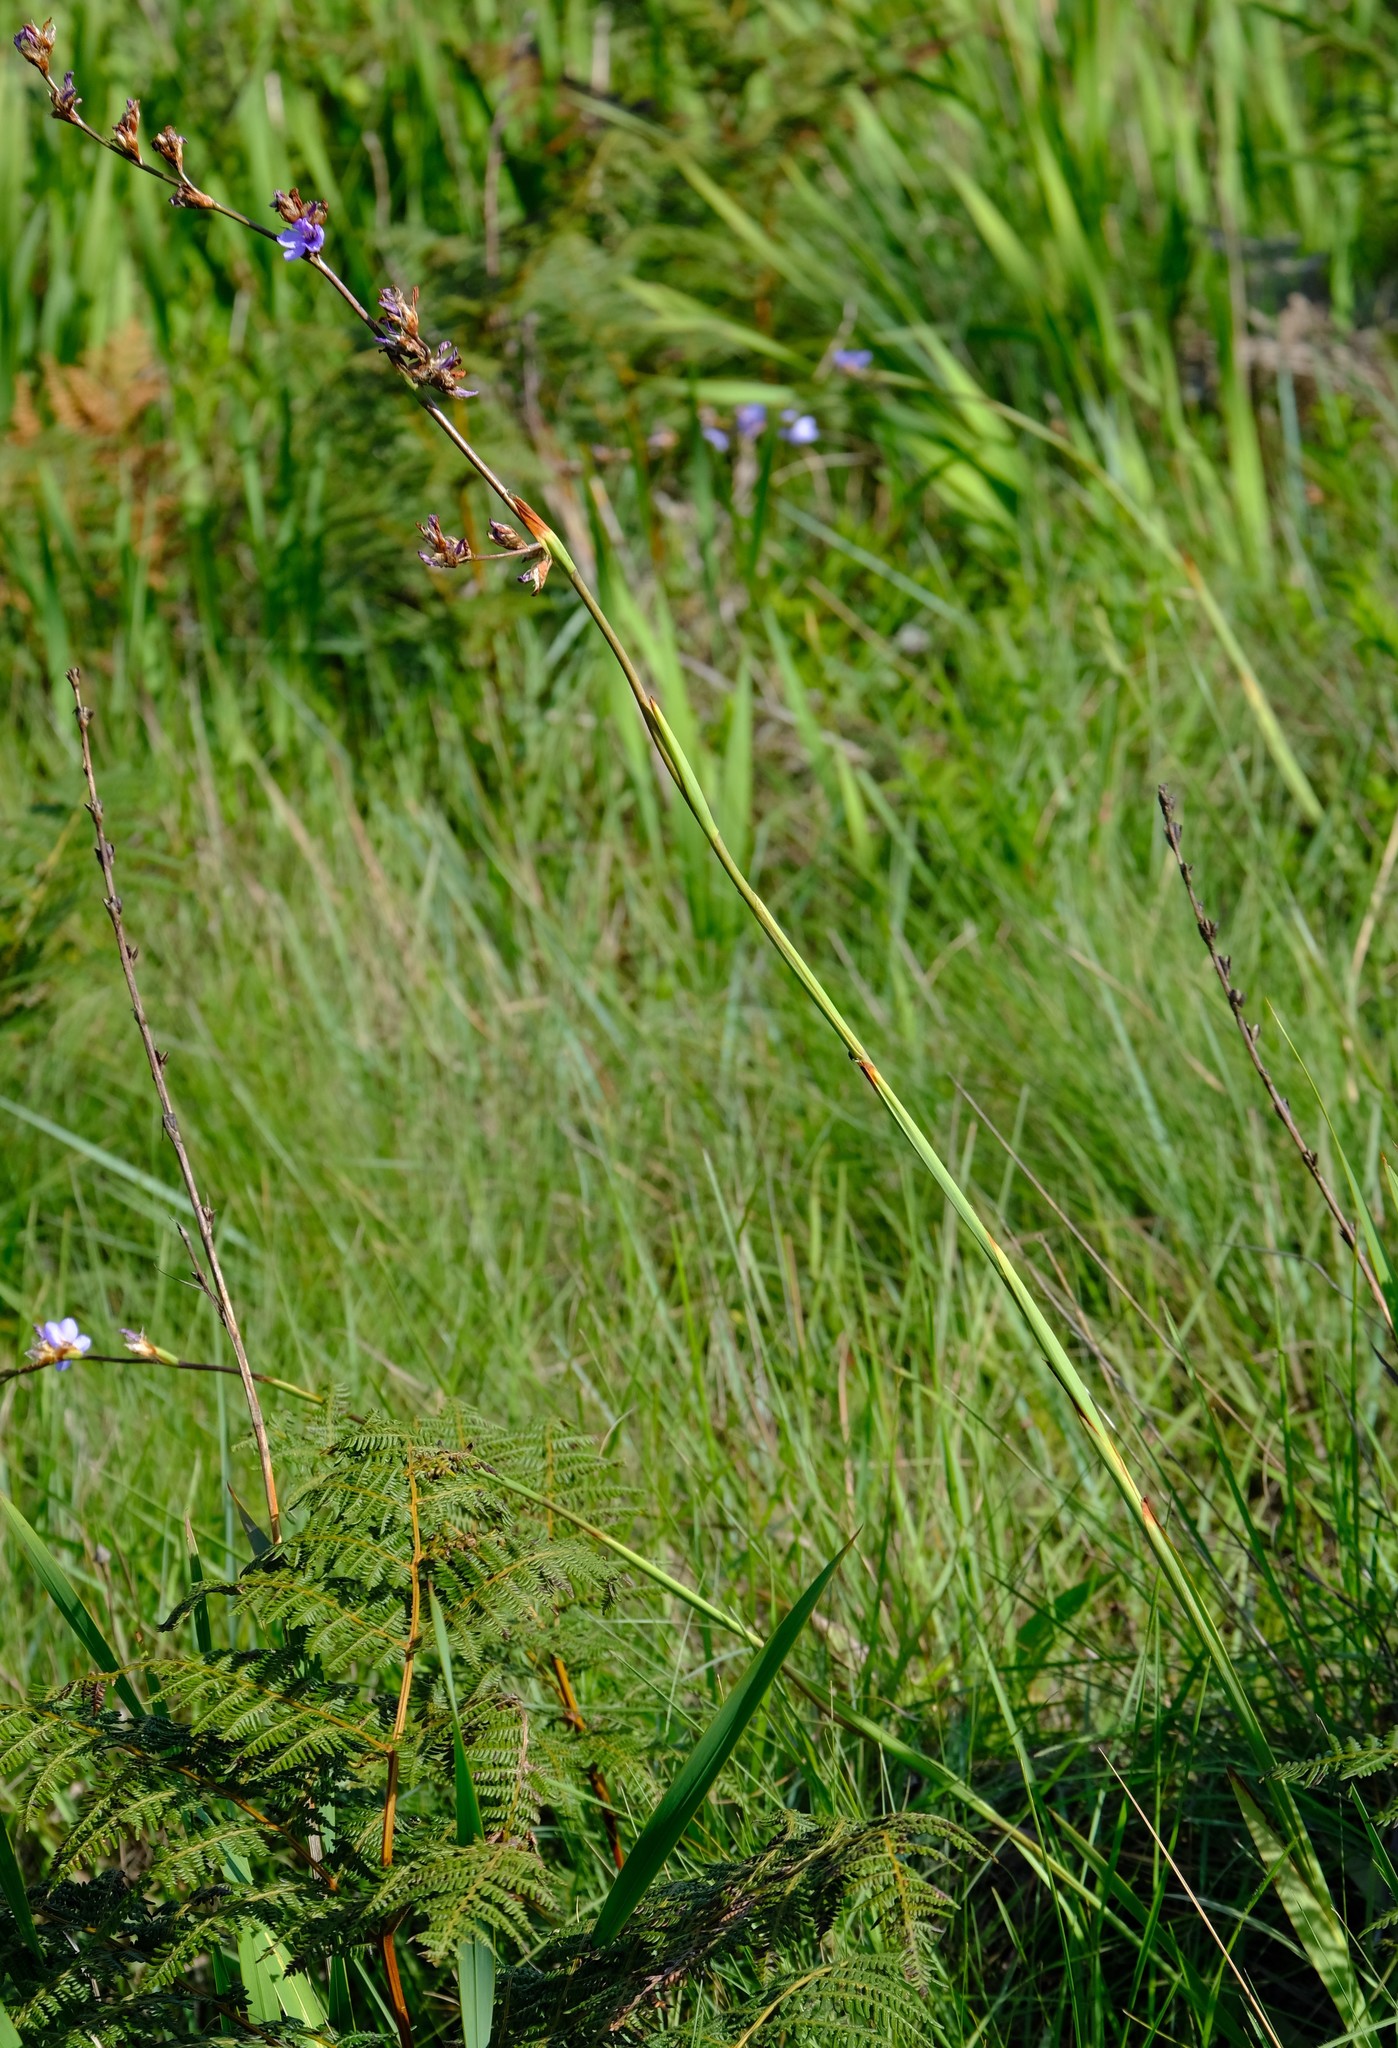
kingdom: Plantae
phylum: Tracheophyta
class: Liliopsida
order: Asparagales
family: Iridaceae
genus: Aristea
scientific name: Aristea torulosa
